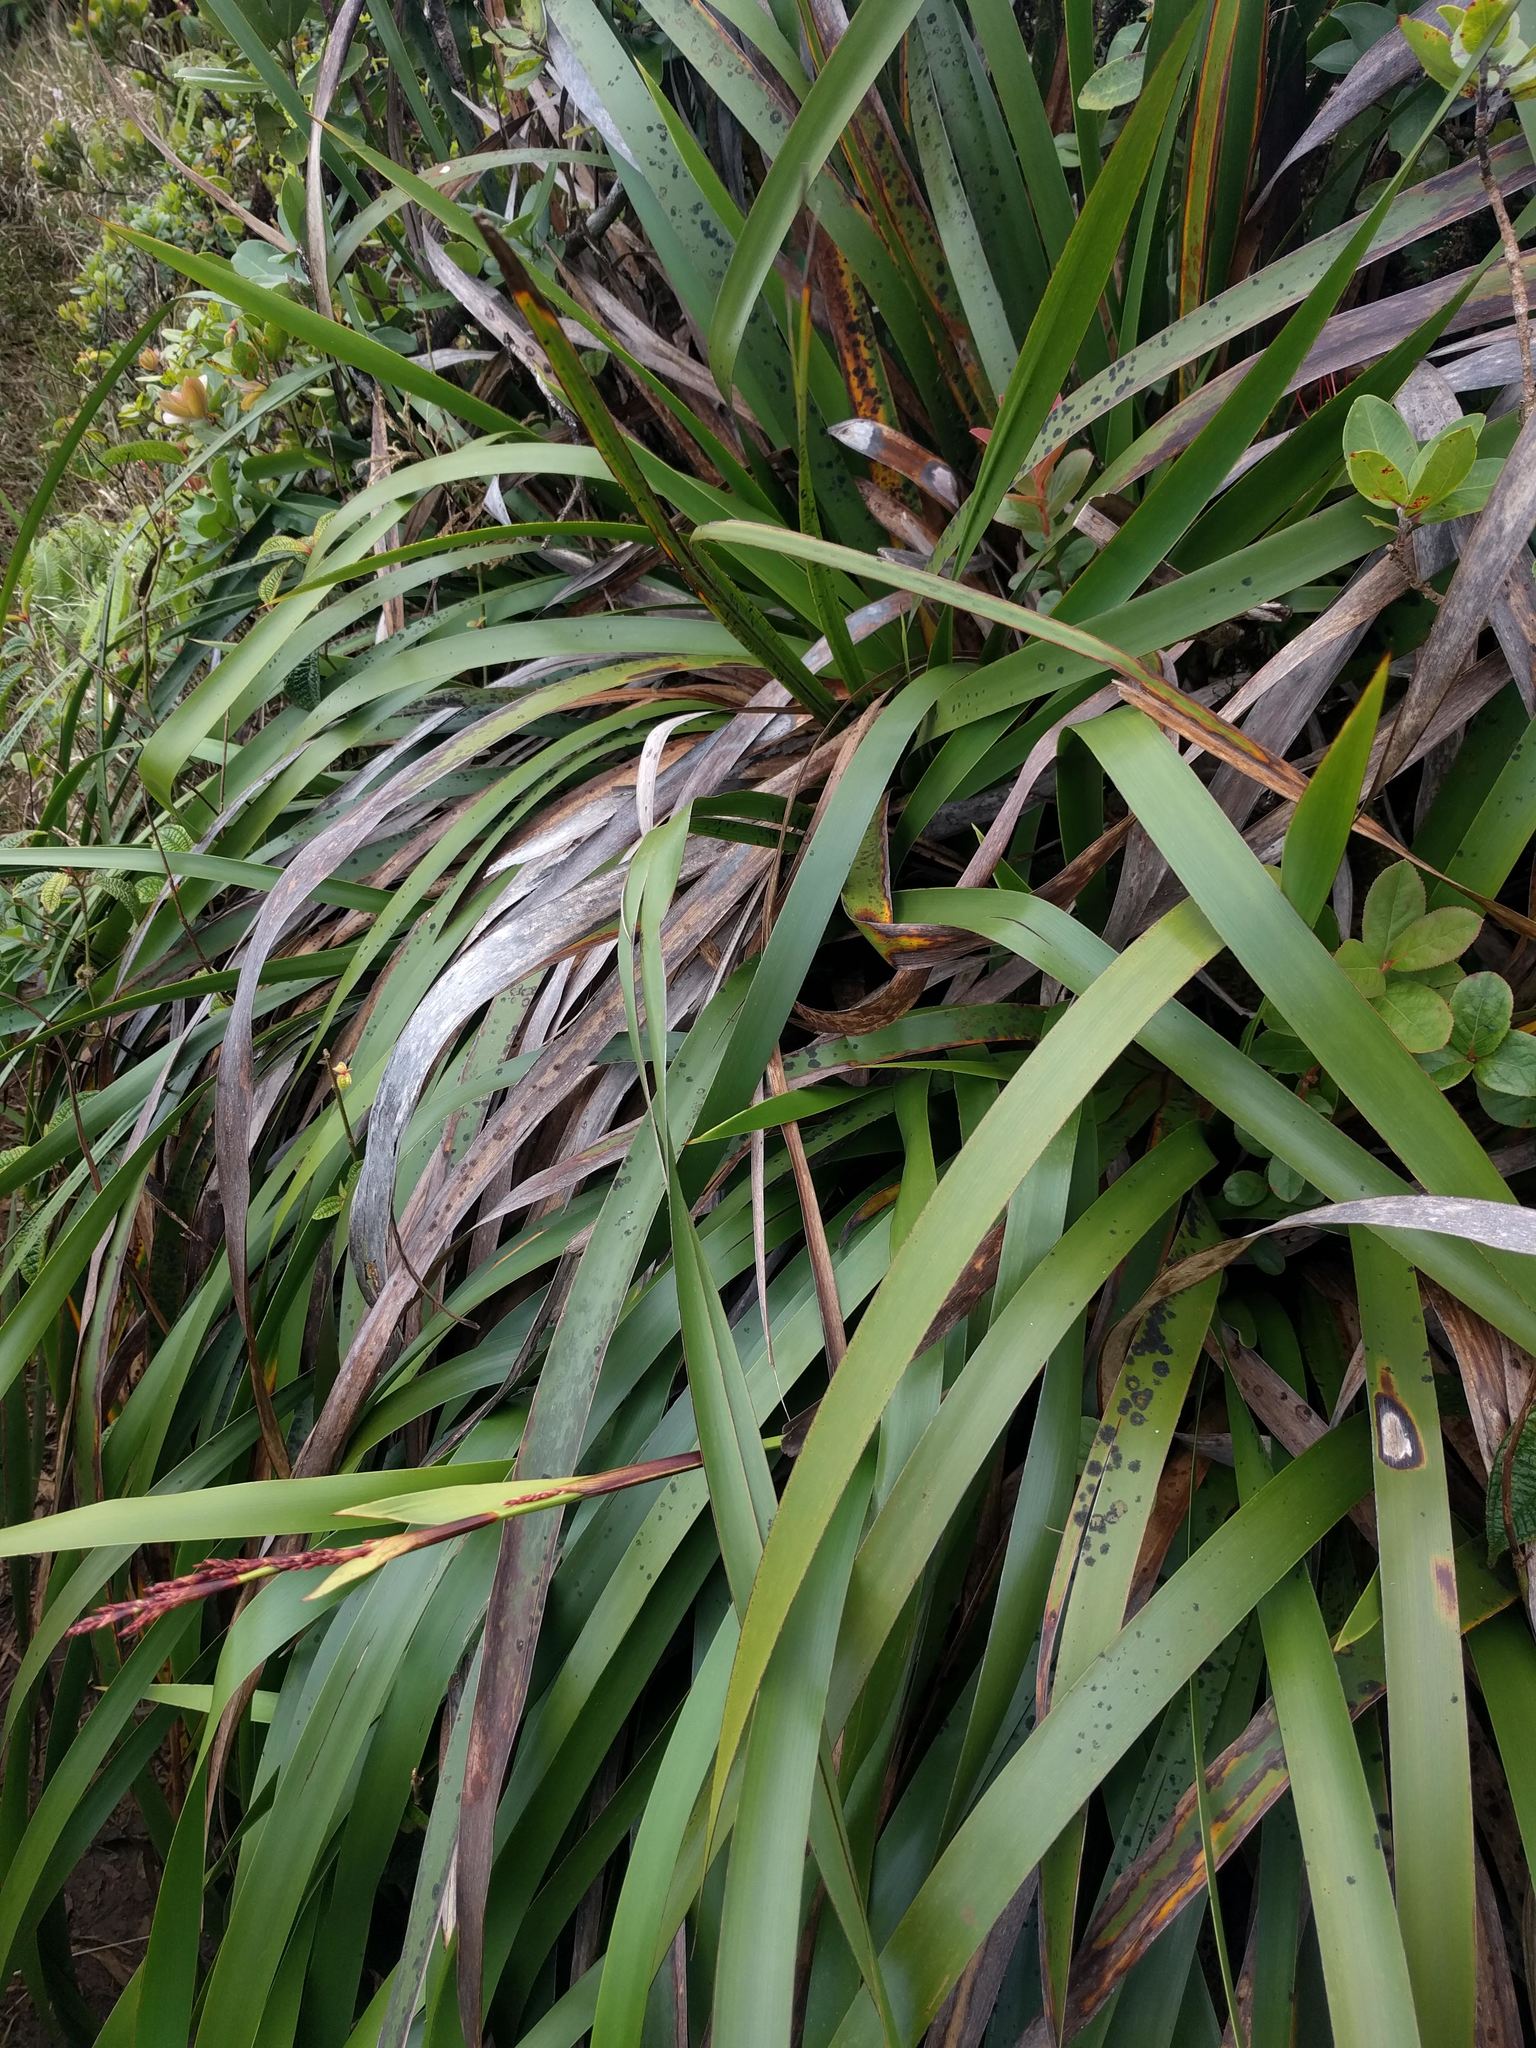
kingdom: Plantae
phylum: Tracheophyta
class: Liliopsida
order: Poales
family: Cyperaceae
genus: Machaerina
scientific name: Machaerina angustifolia
